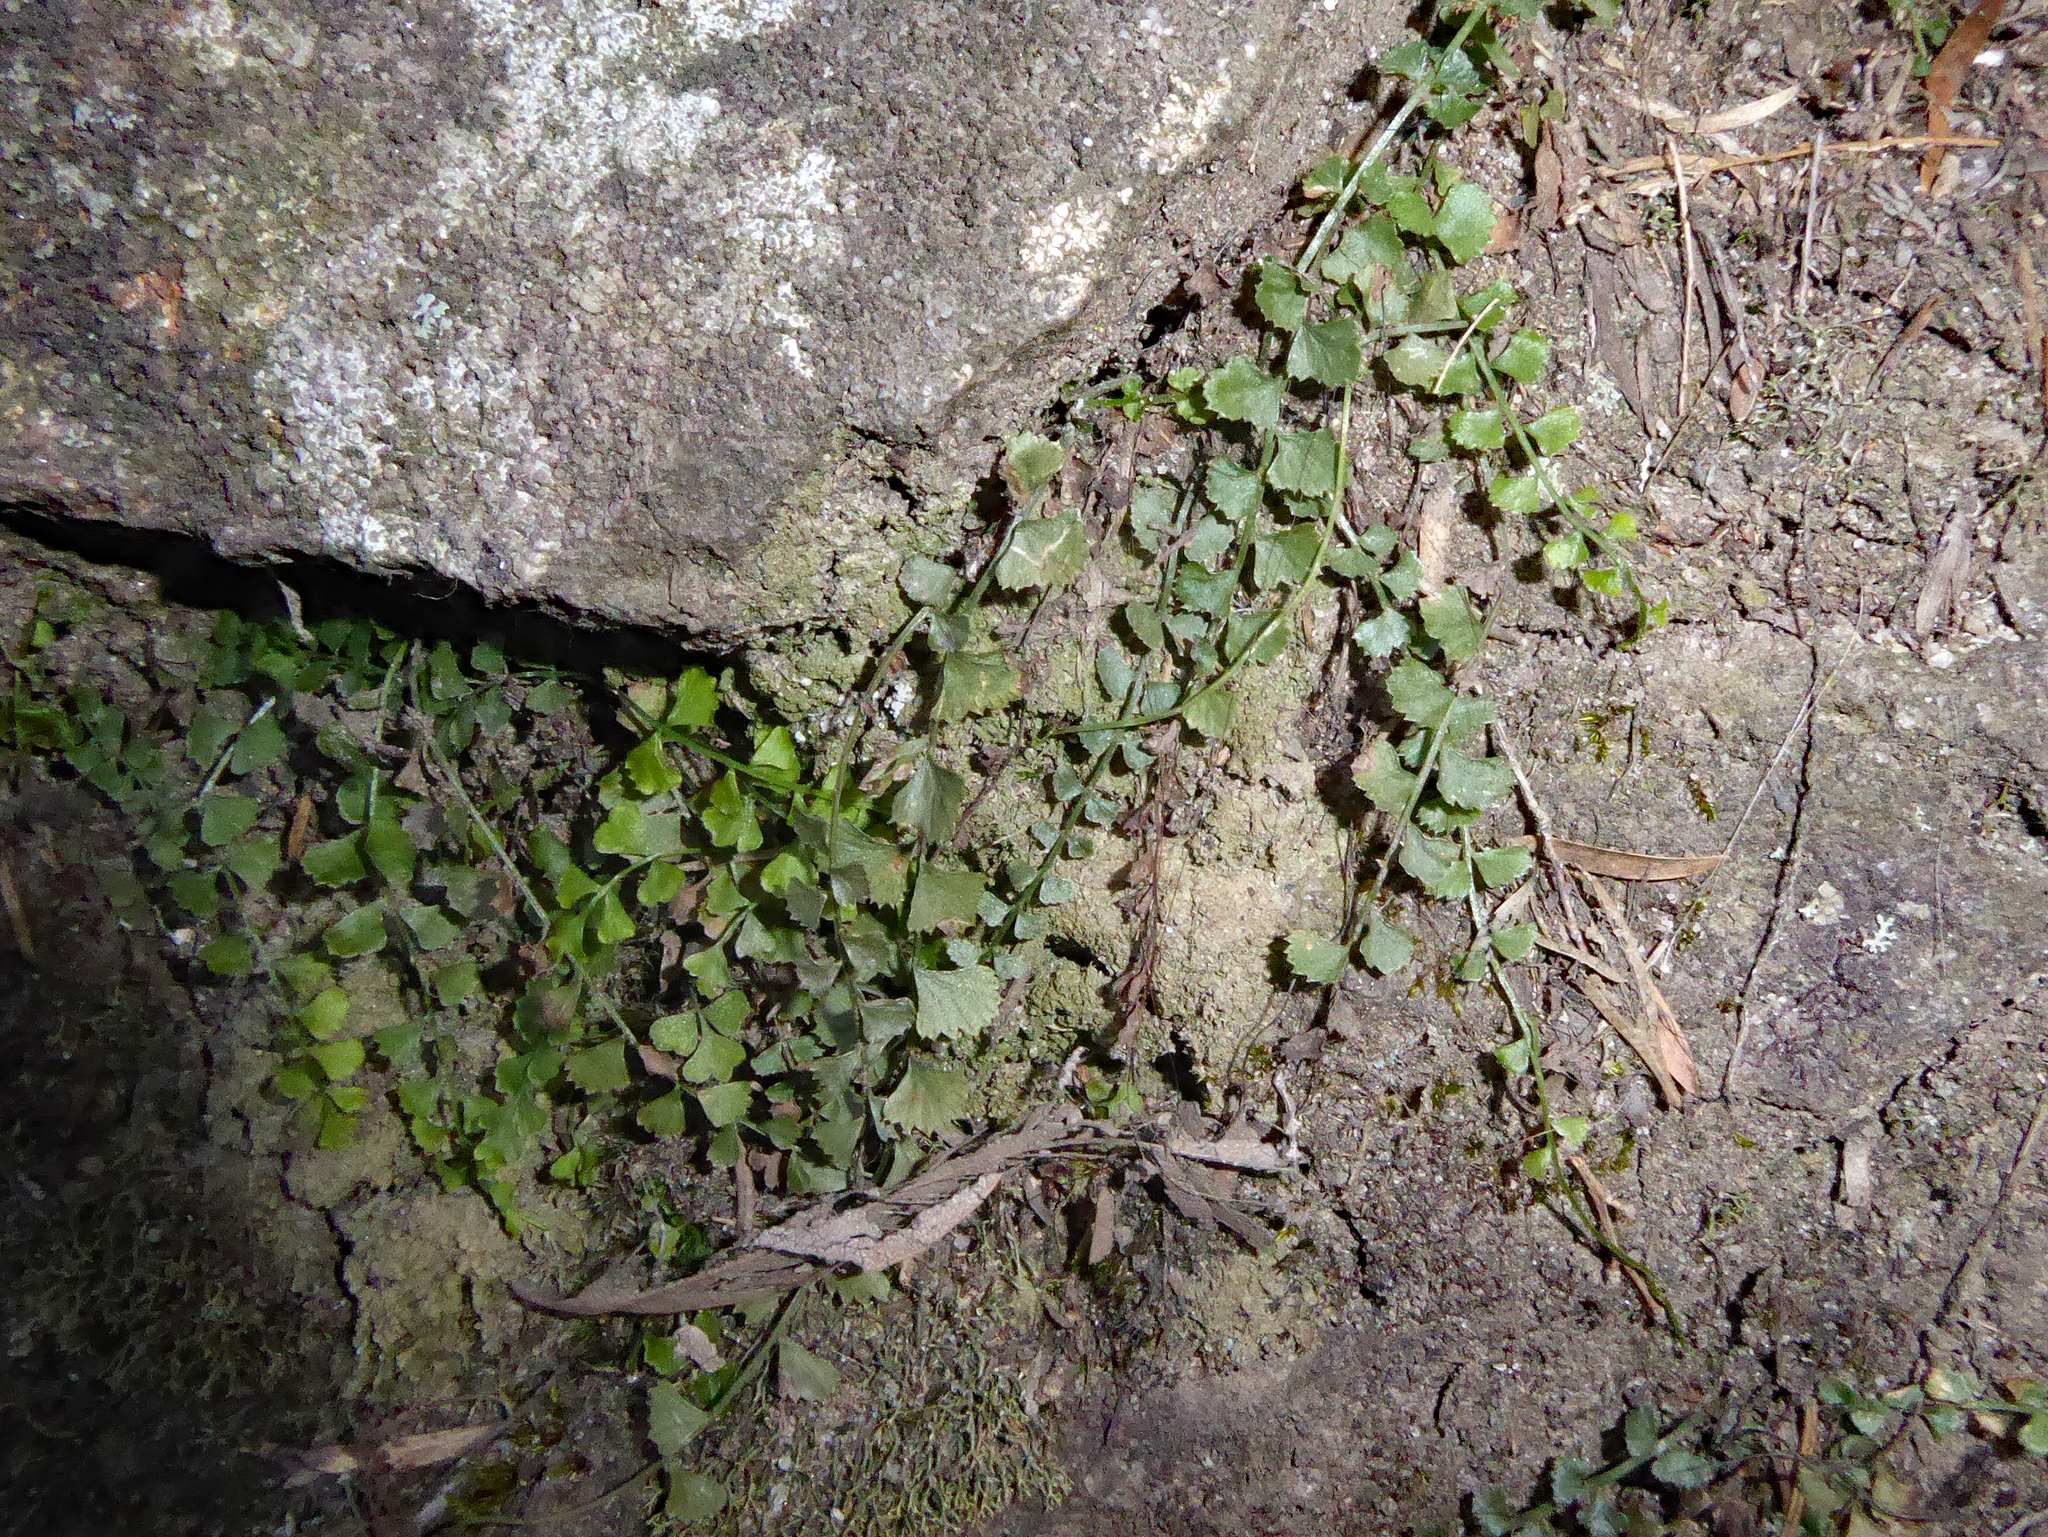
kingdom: Plantae
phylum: Tracheophyta
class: Polypodiopsida
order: Polypodiales
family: Aspleniaceae
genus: Asplenium
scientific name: Asplenium flabellifolium
